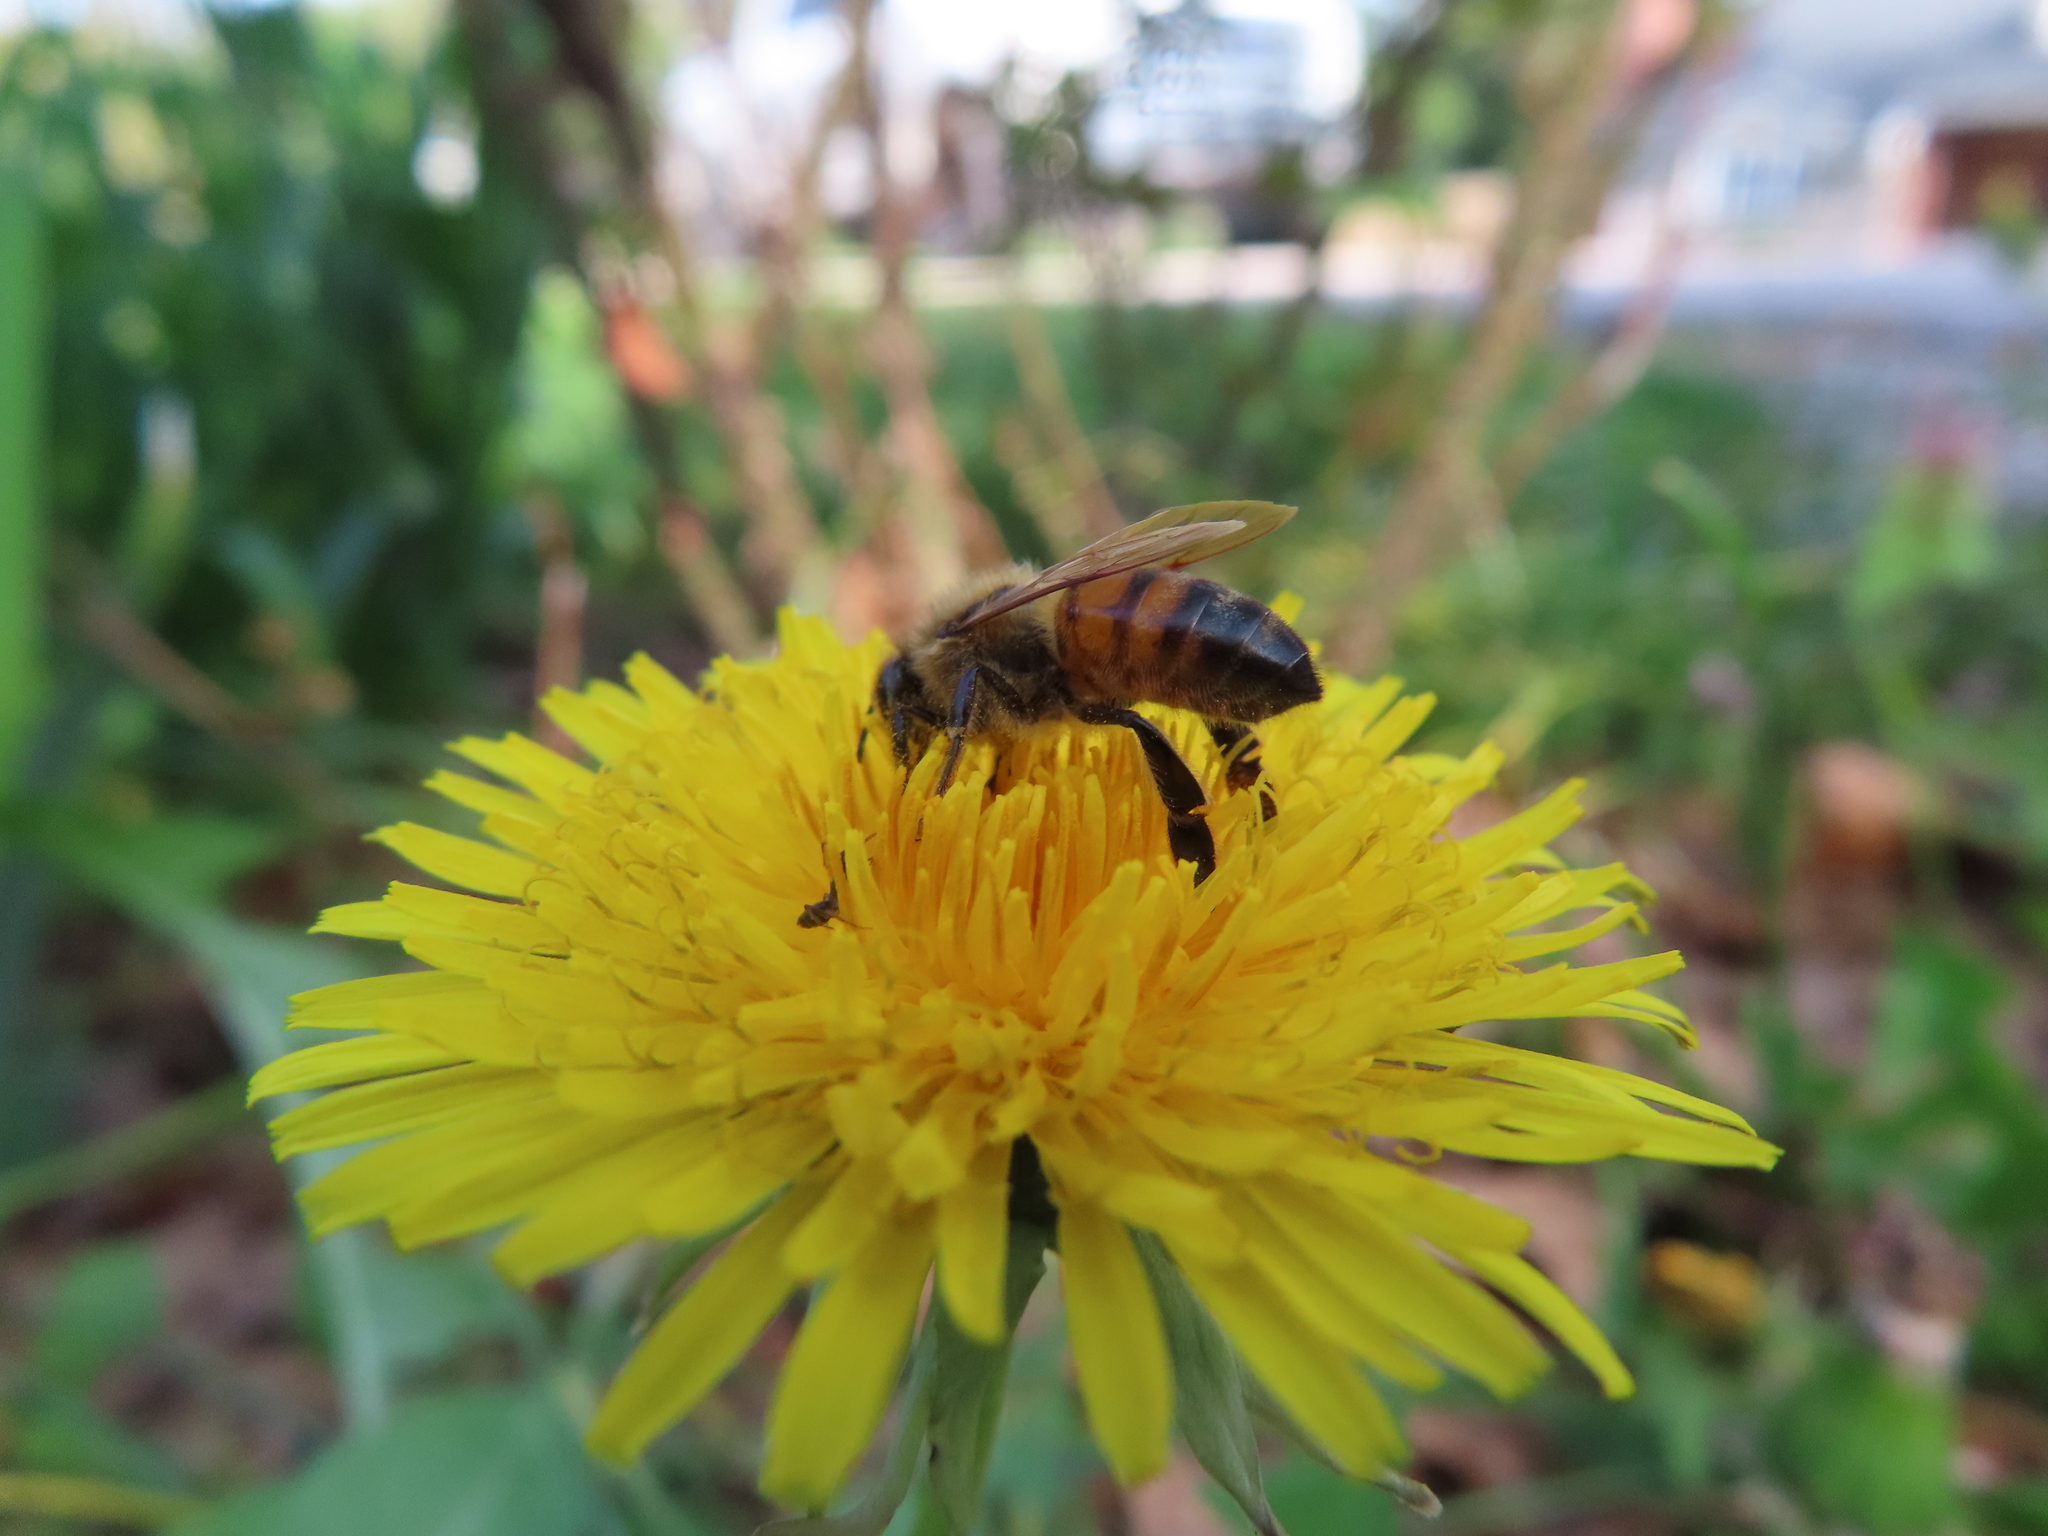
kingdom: Animalia
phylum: Arthropoda
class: Insecta
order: Hymenoptera
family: Apidae
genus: Apis
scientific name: Apis mellifera
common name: Honey bee
